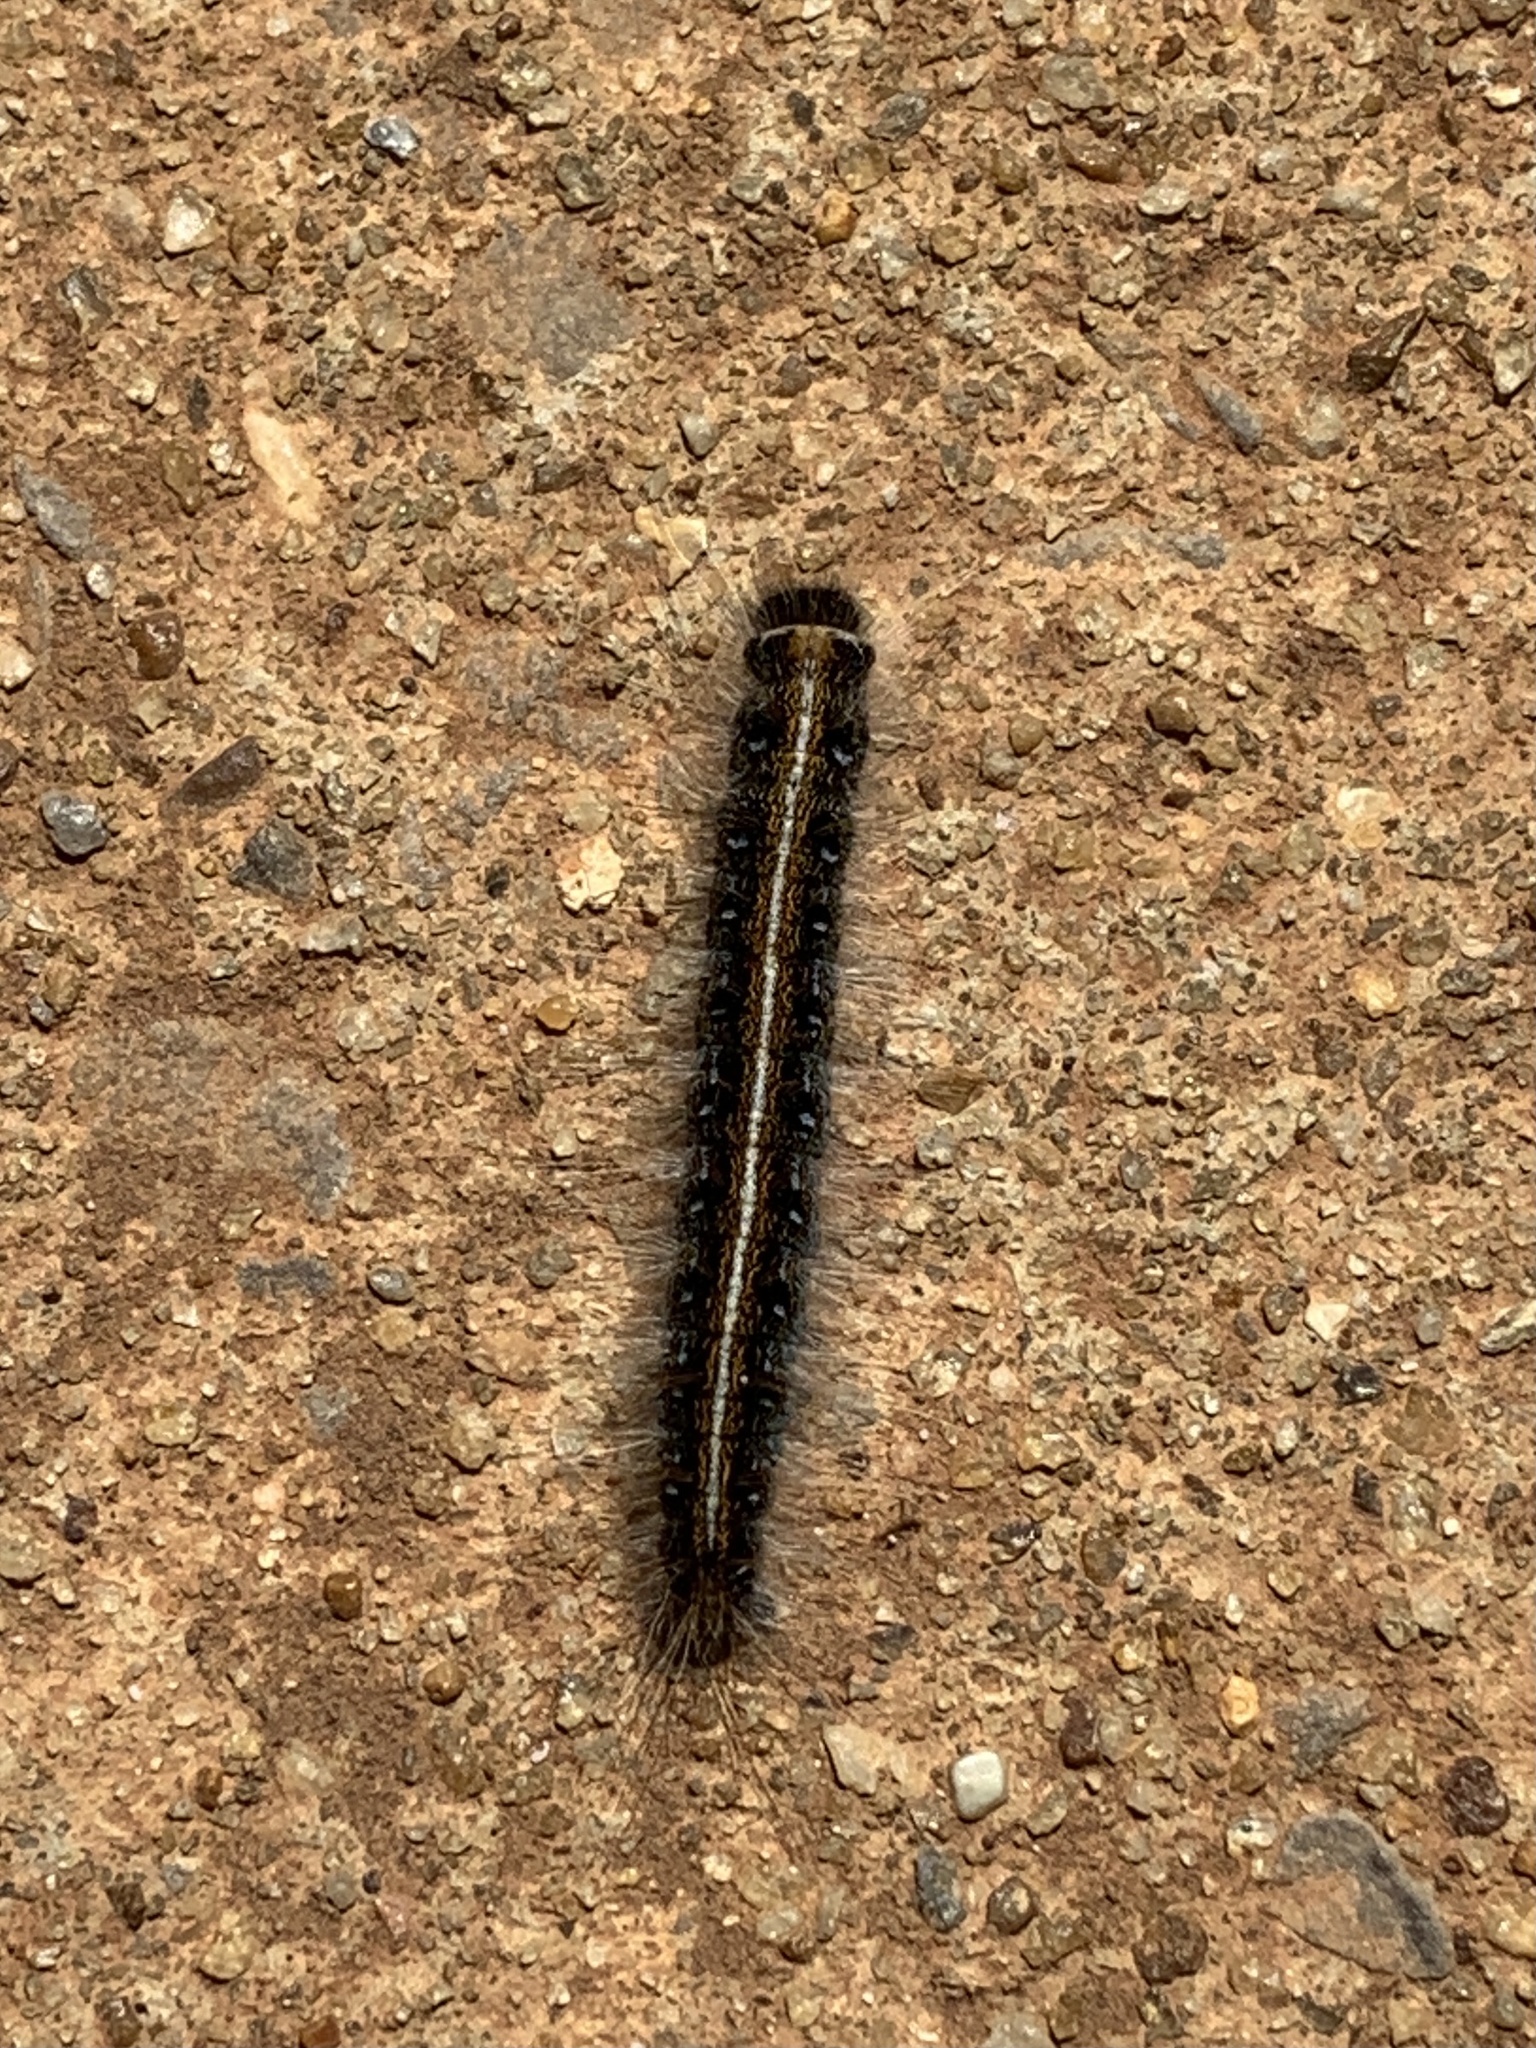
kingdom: Animalia
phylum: Arthropoda
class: Insecta
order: Lepidoptera
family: Lasiocampidae
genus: Malacosoma
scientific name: Malacosoma americana
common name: Eastern tent caterpillar moth
